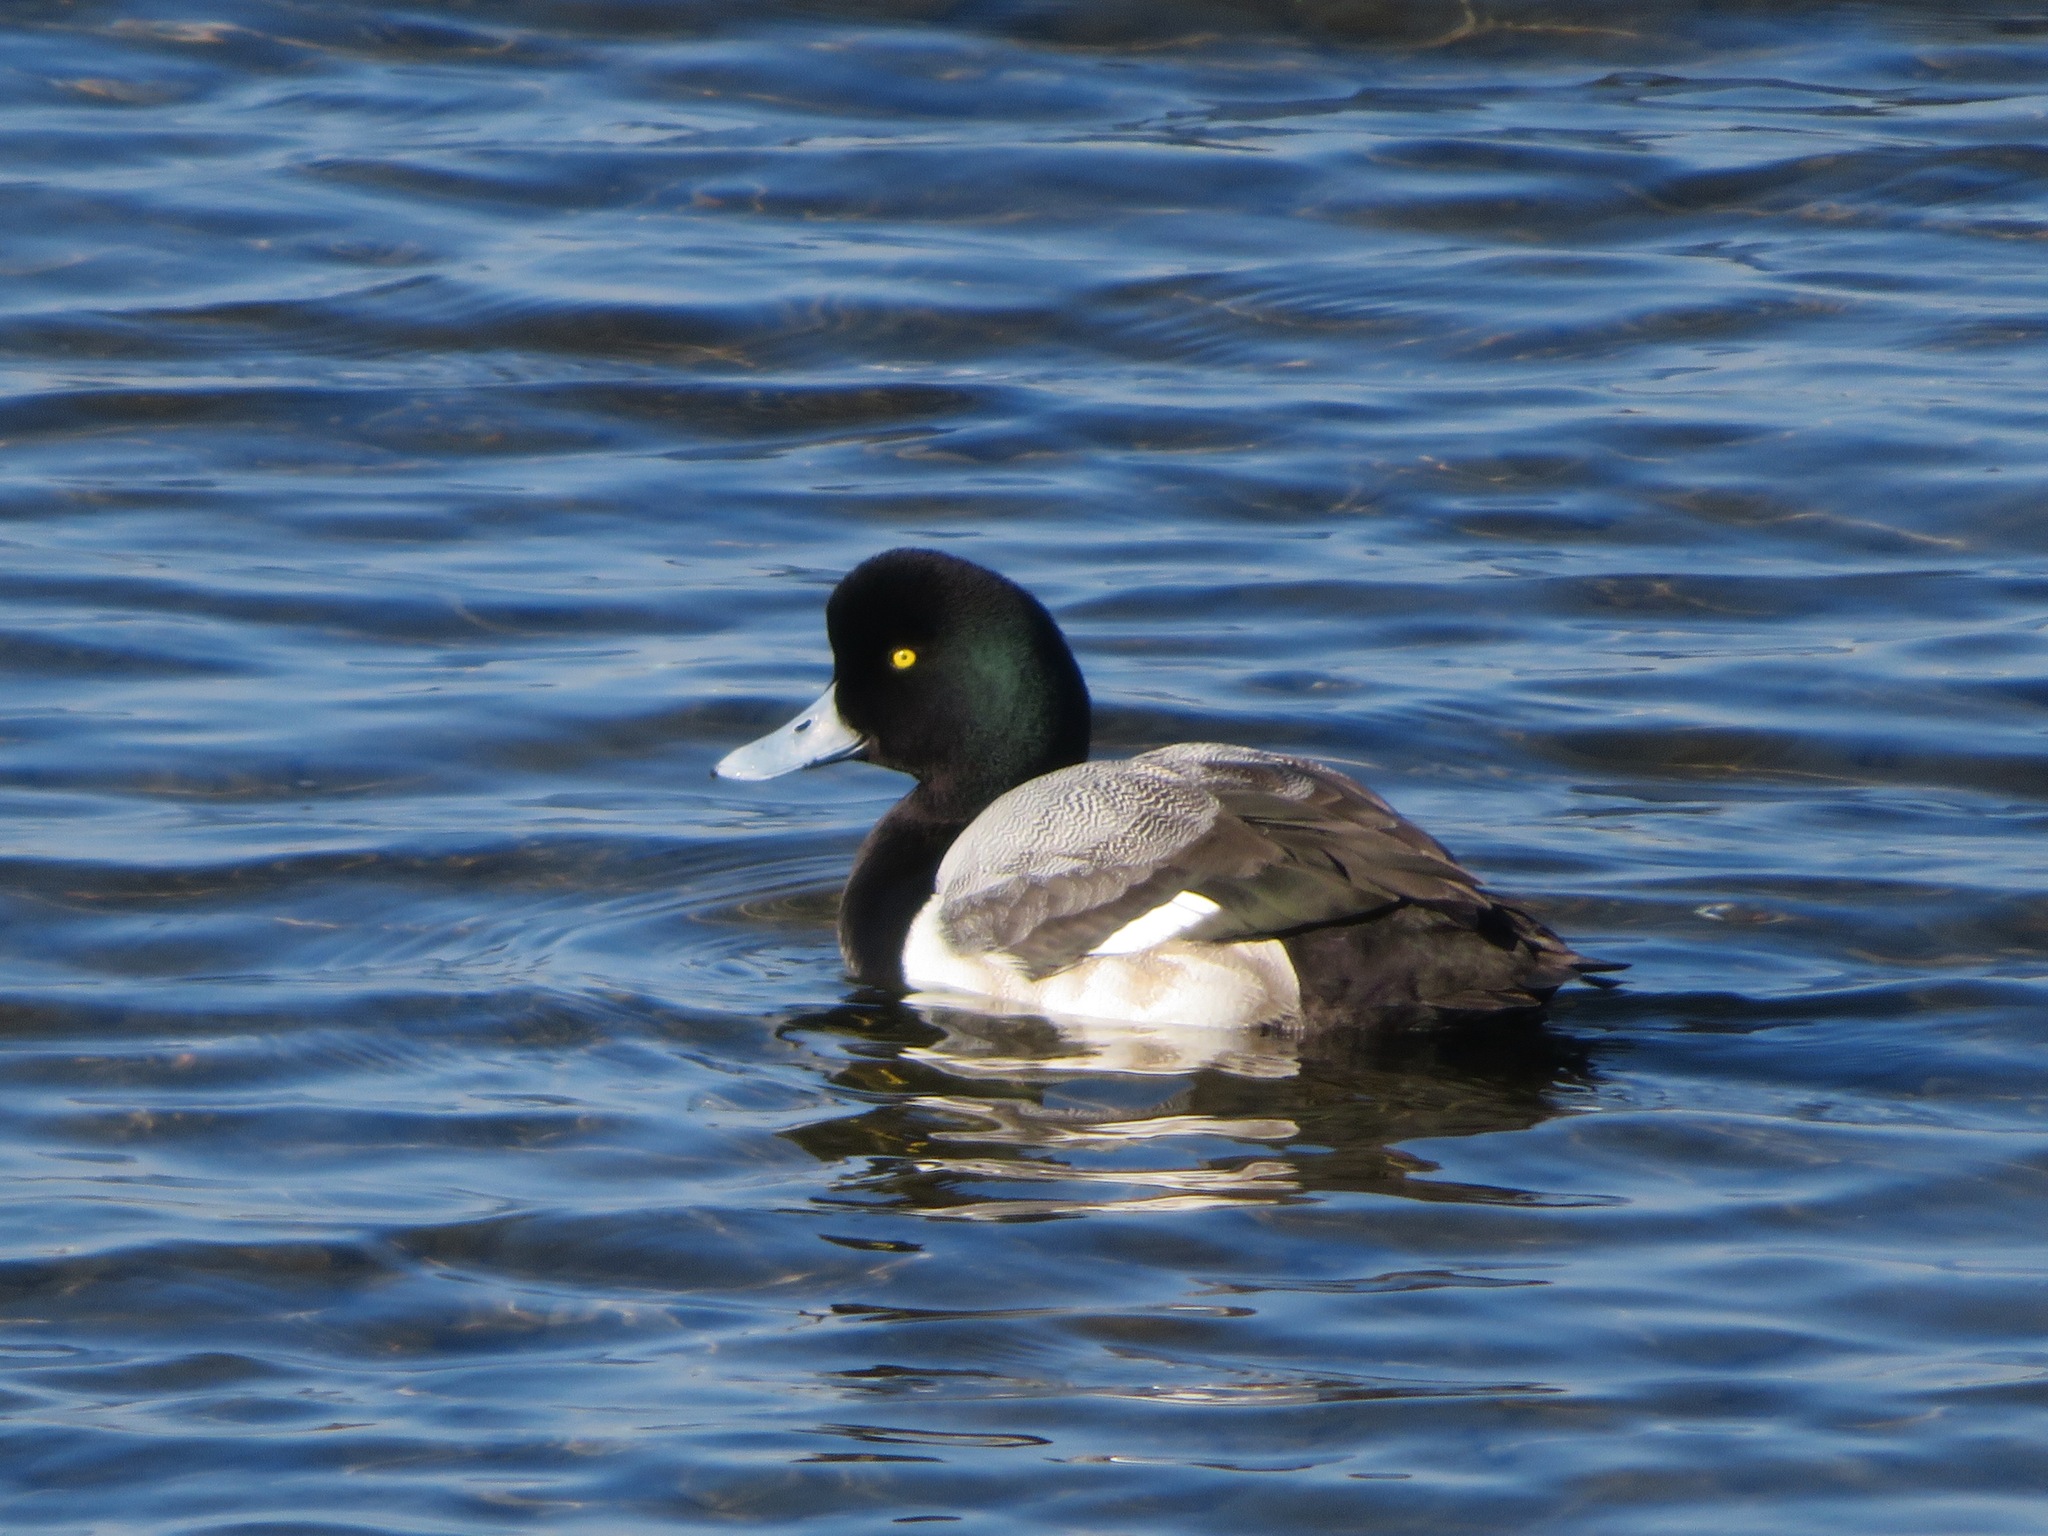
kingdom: Animalia
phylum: Chordata
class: Aves
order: Anseriformes
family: Anatidae
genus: Aythya
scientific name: Aythya marila
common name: Greater scaup
